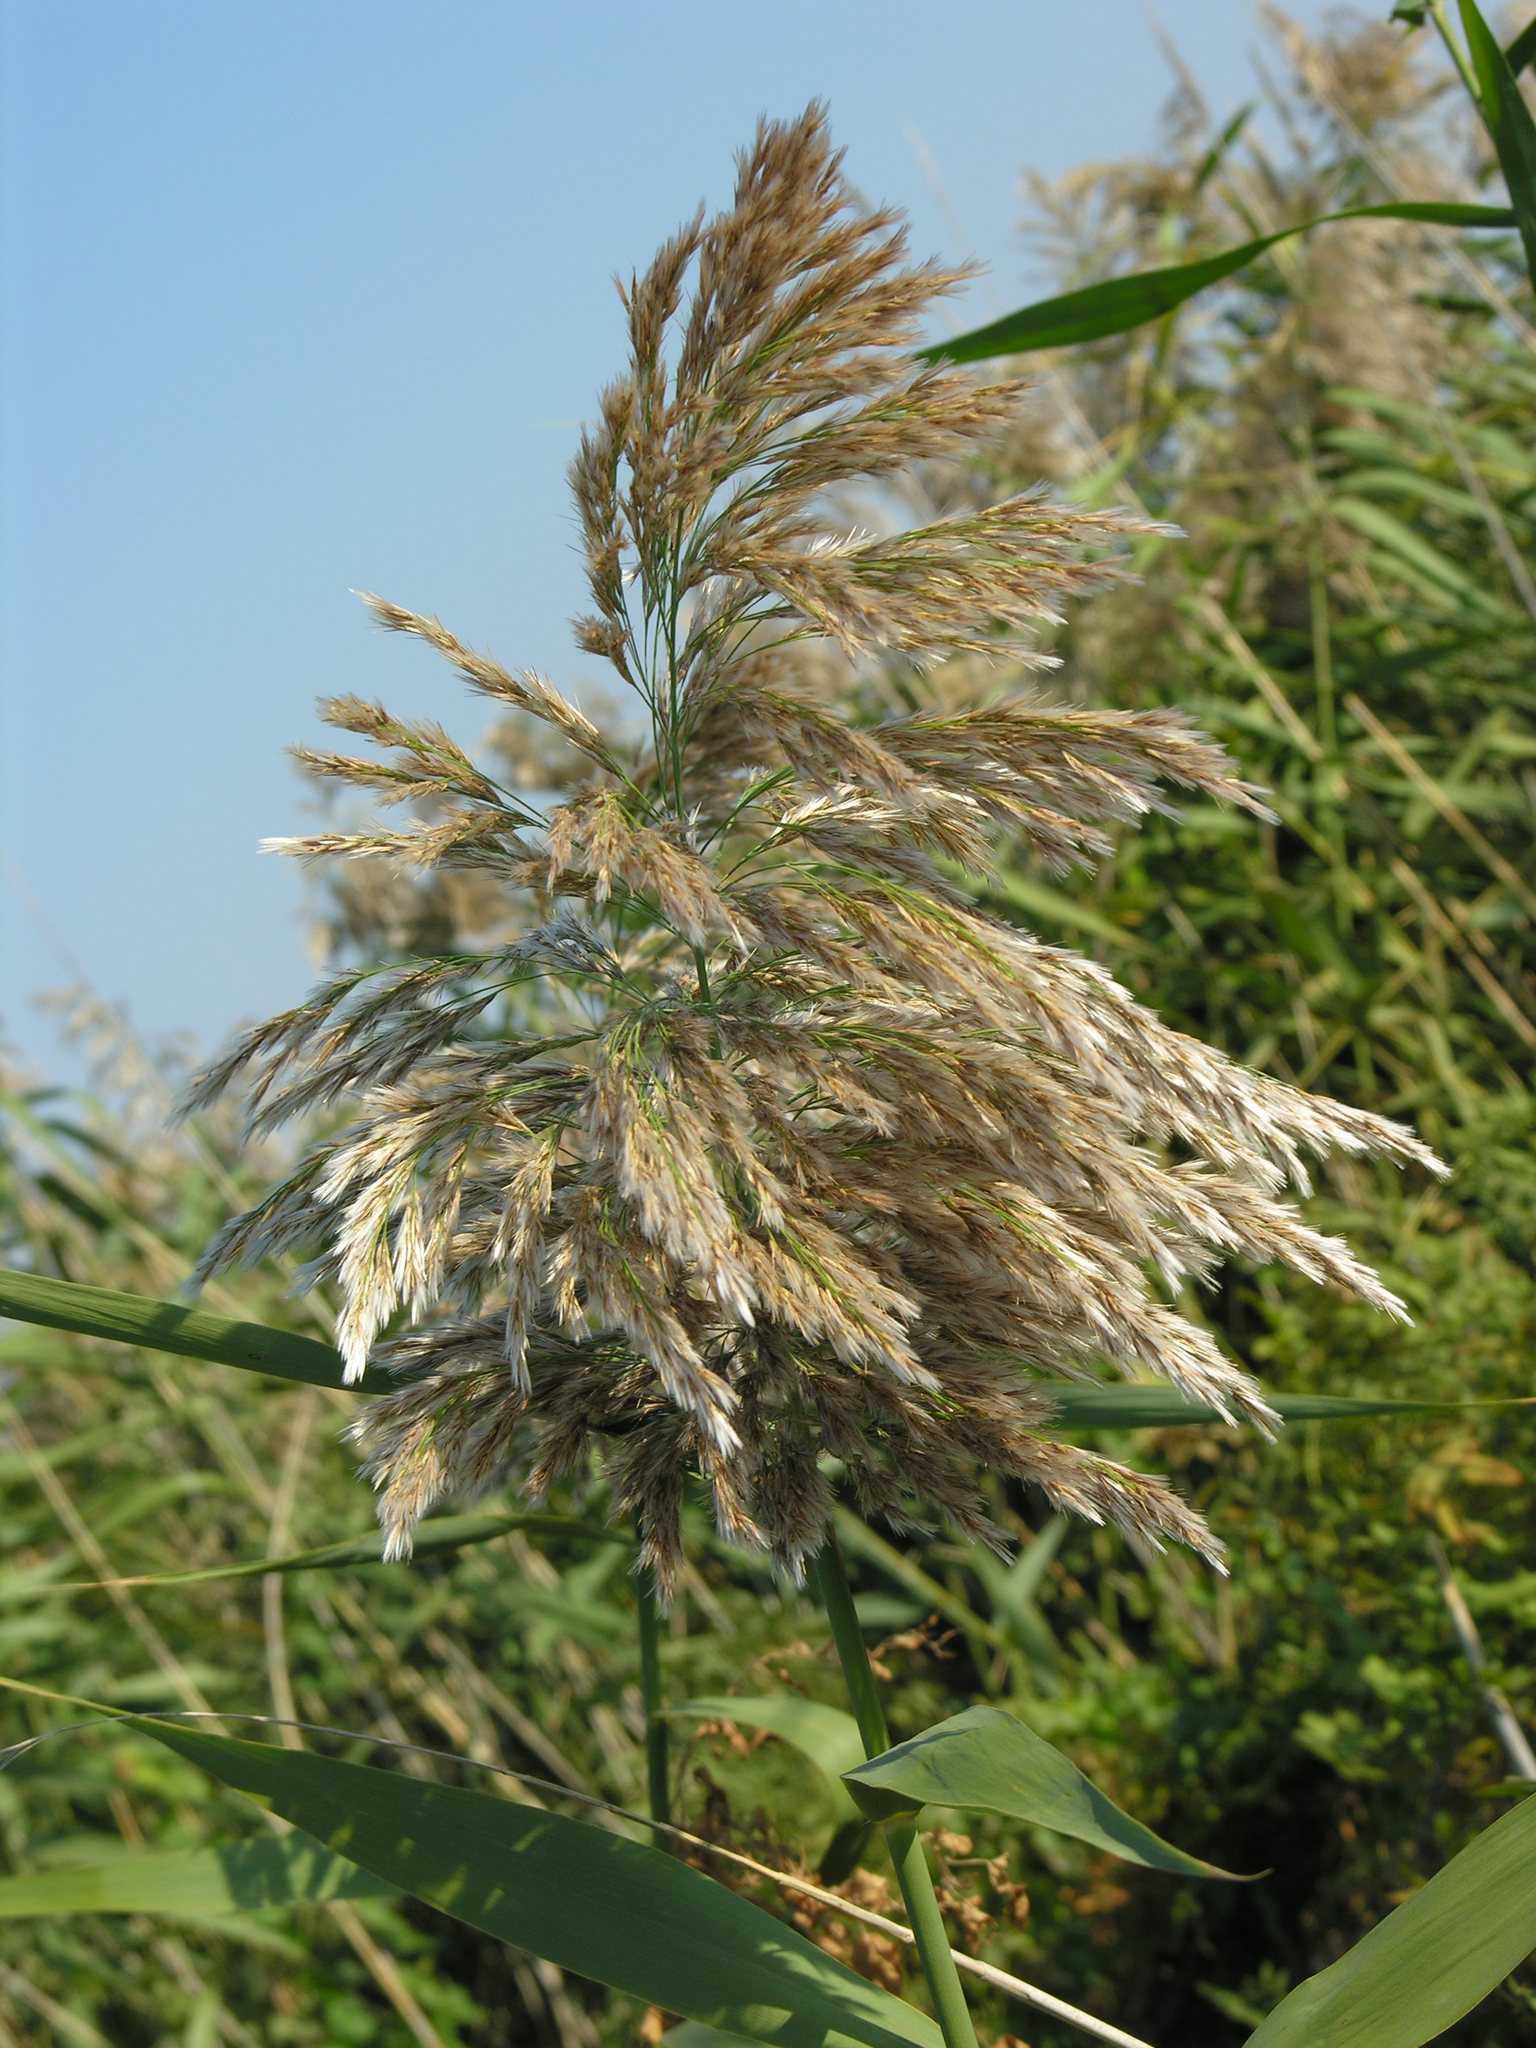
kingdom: Plantae
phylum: Tracheophyta
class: Liliopsida
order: Poales
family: Poaceae
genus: Phragmites
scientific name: Phragmites australis
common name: Common reed
